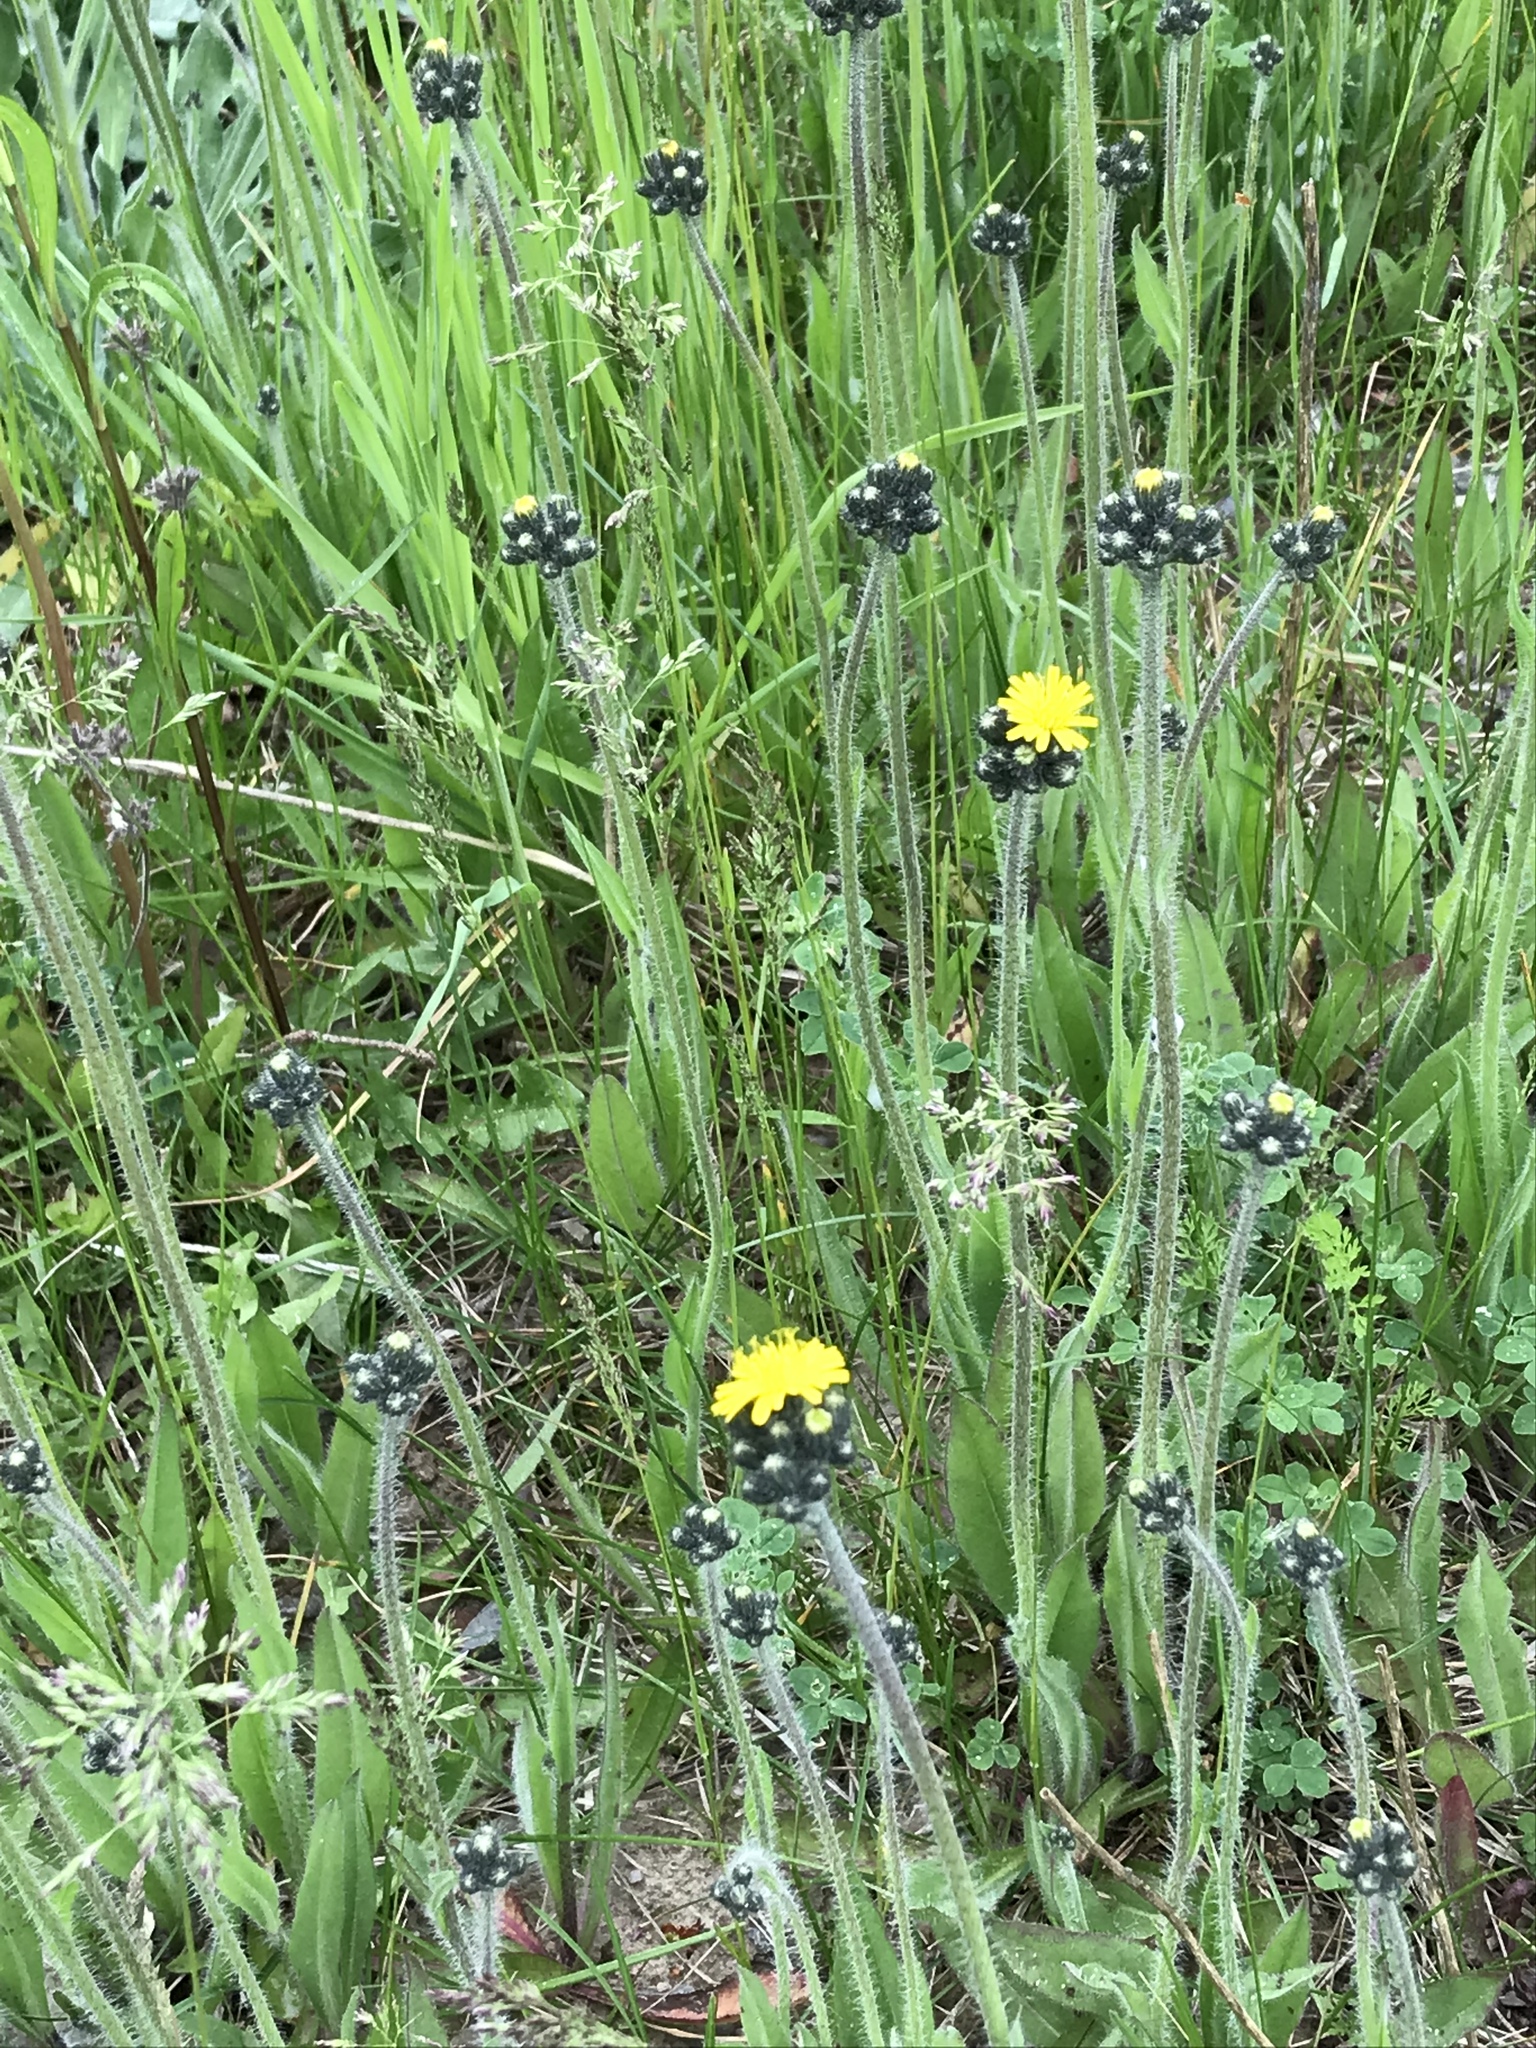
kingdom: Plantae
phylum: Tracheophyta
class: Magnoliopsida
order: Asterales
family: Asteraceae
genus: Pilosella
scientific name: Pilosella caespitosa
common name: Yellow fox-and-cubs
